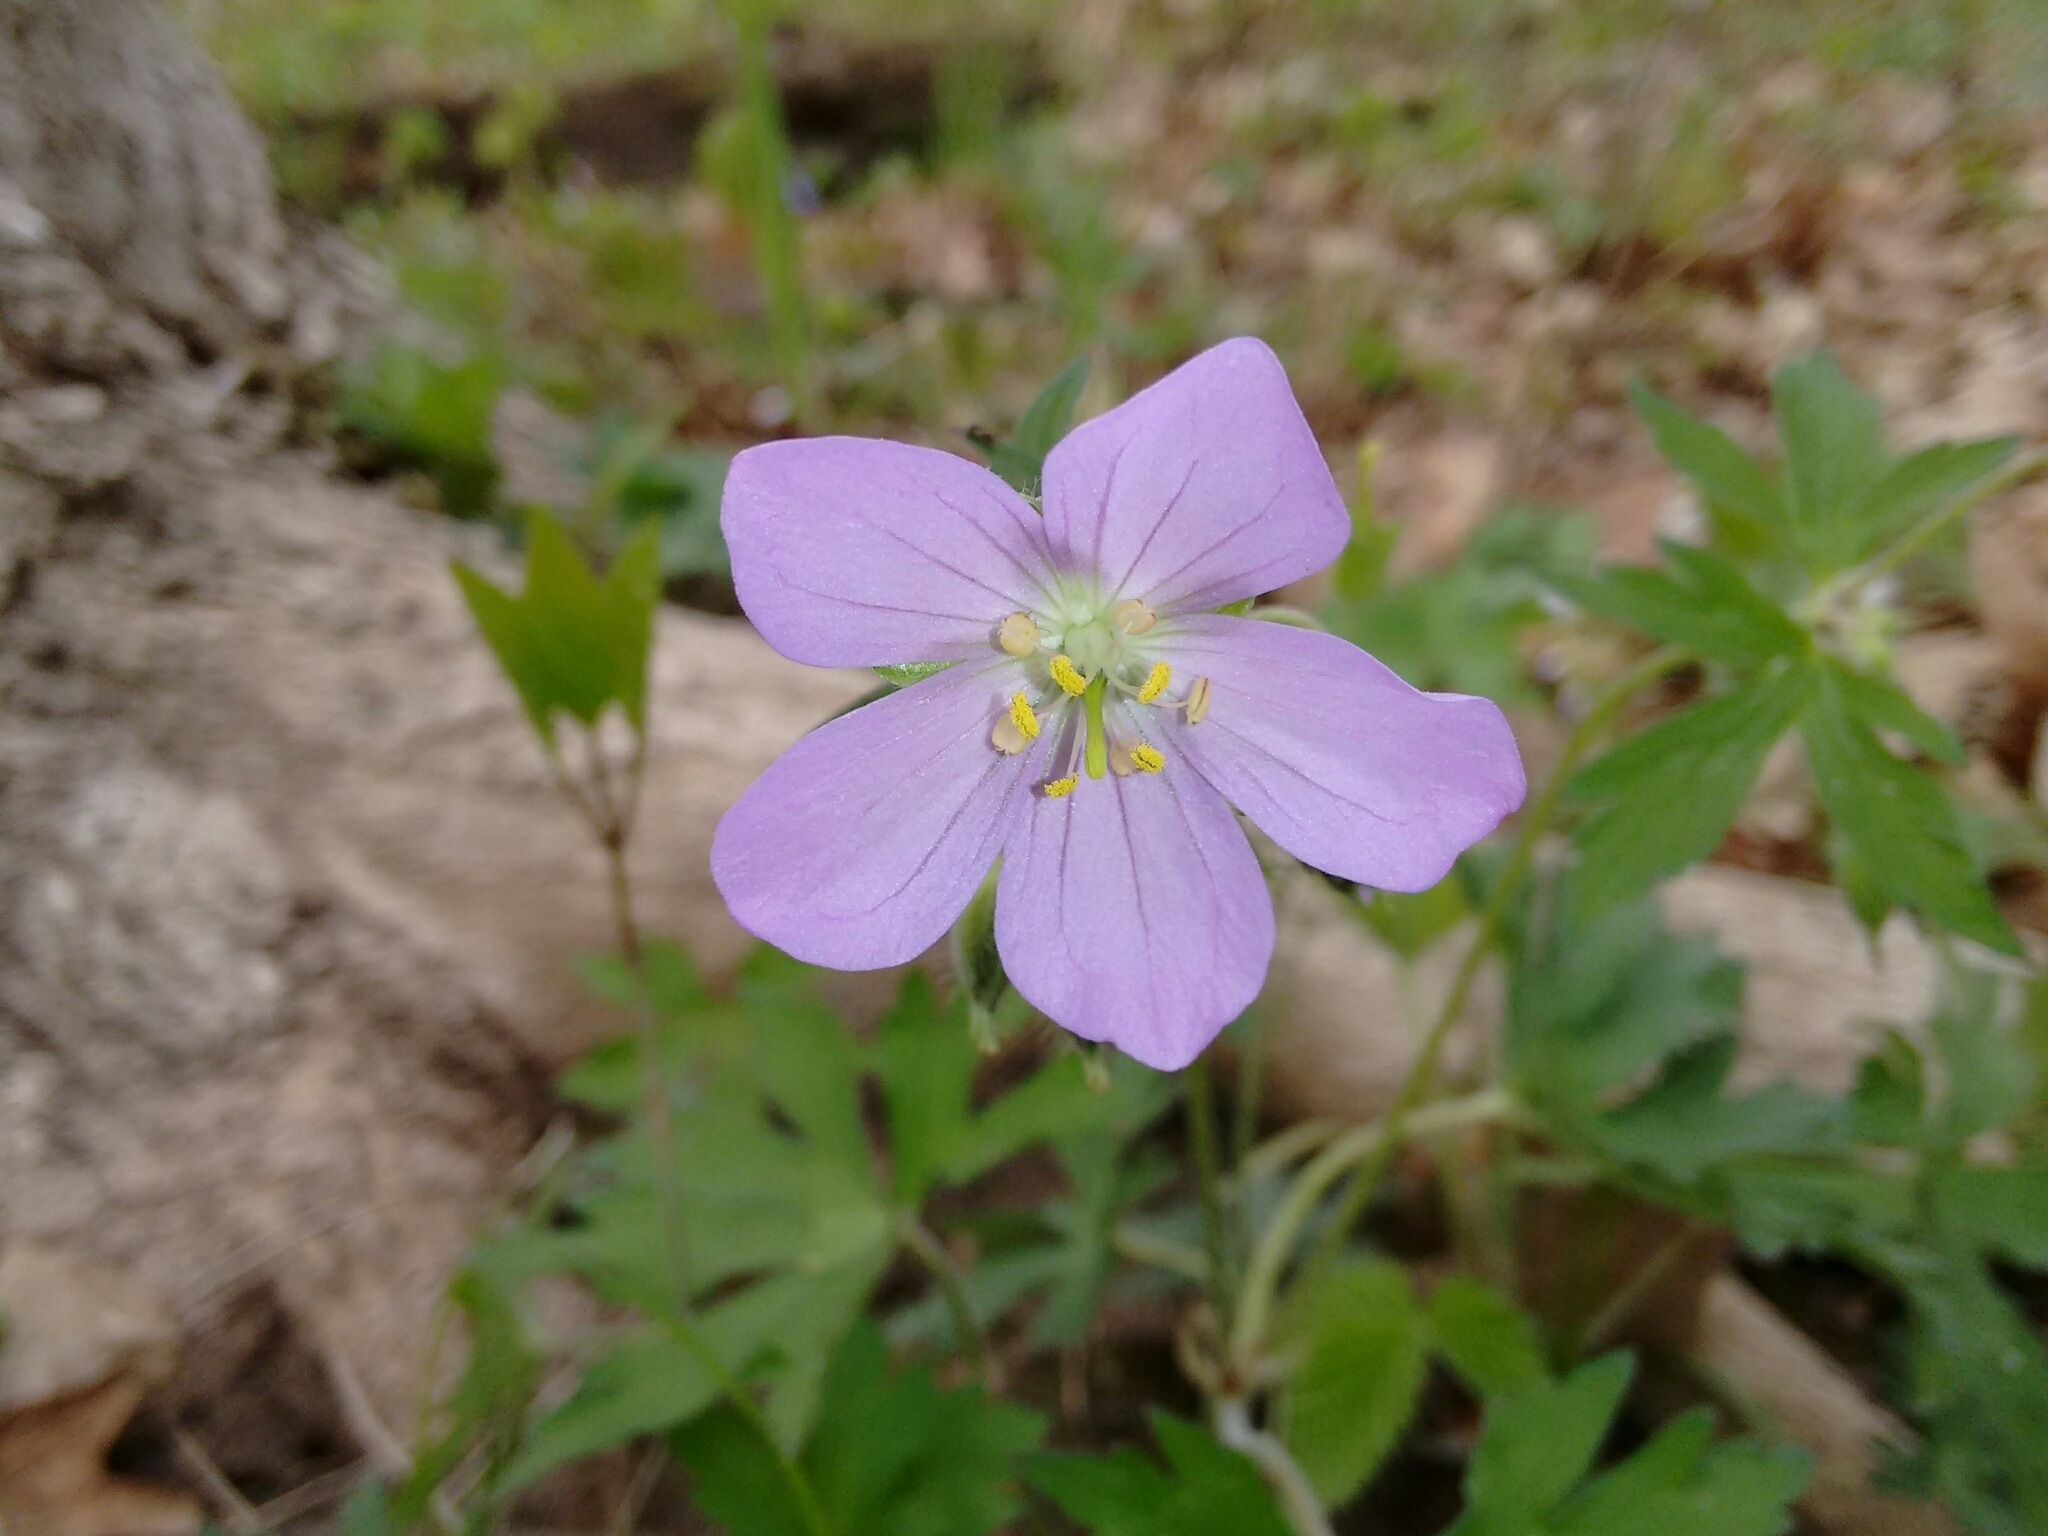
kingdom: Plantae
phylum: Tracheophyta
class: Magnoliopsida
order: Geraniales
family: Geraniaceae
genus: Geranium
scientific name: Geranium maculatum
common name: Spotted geranium
